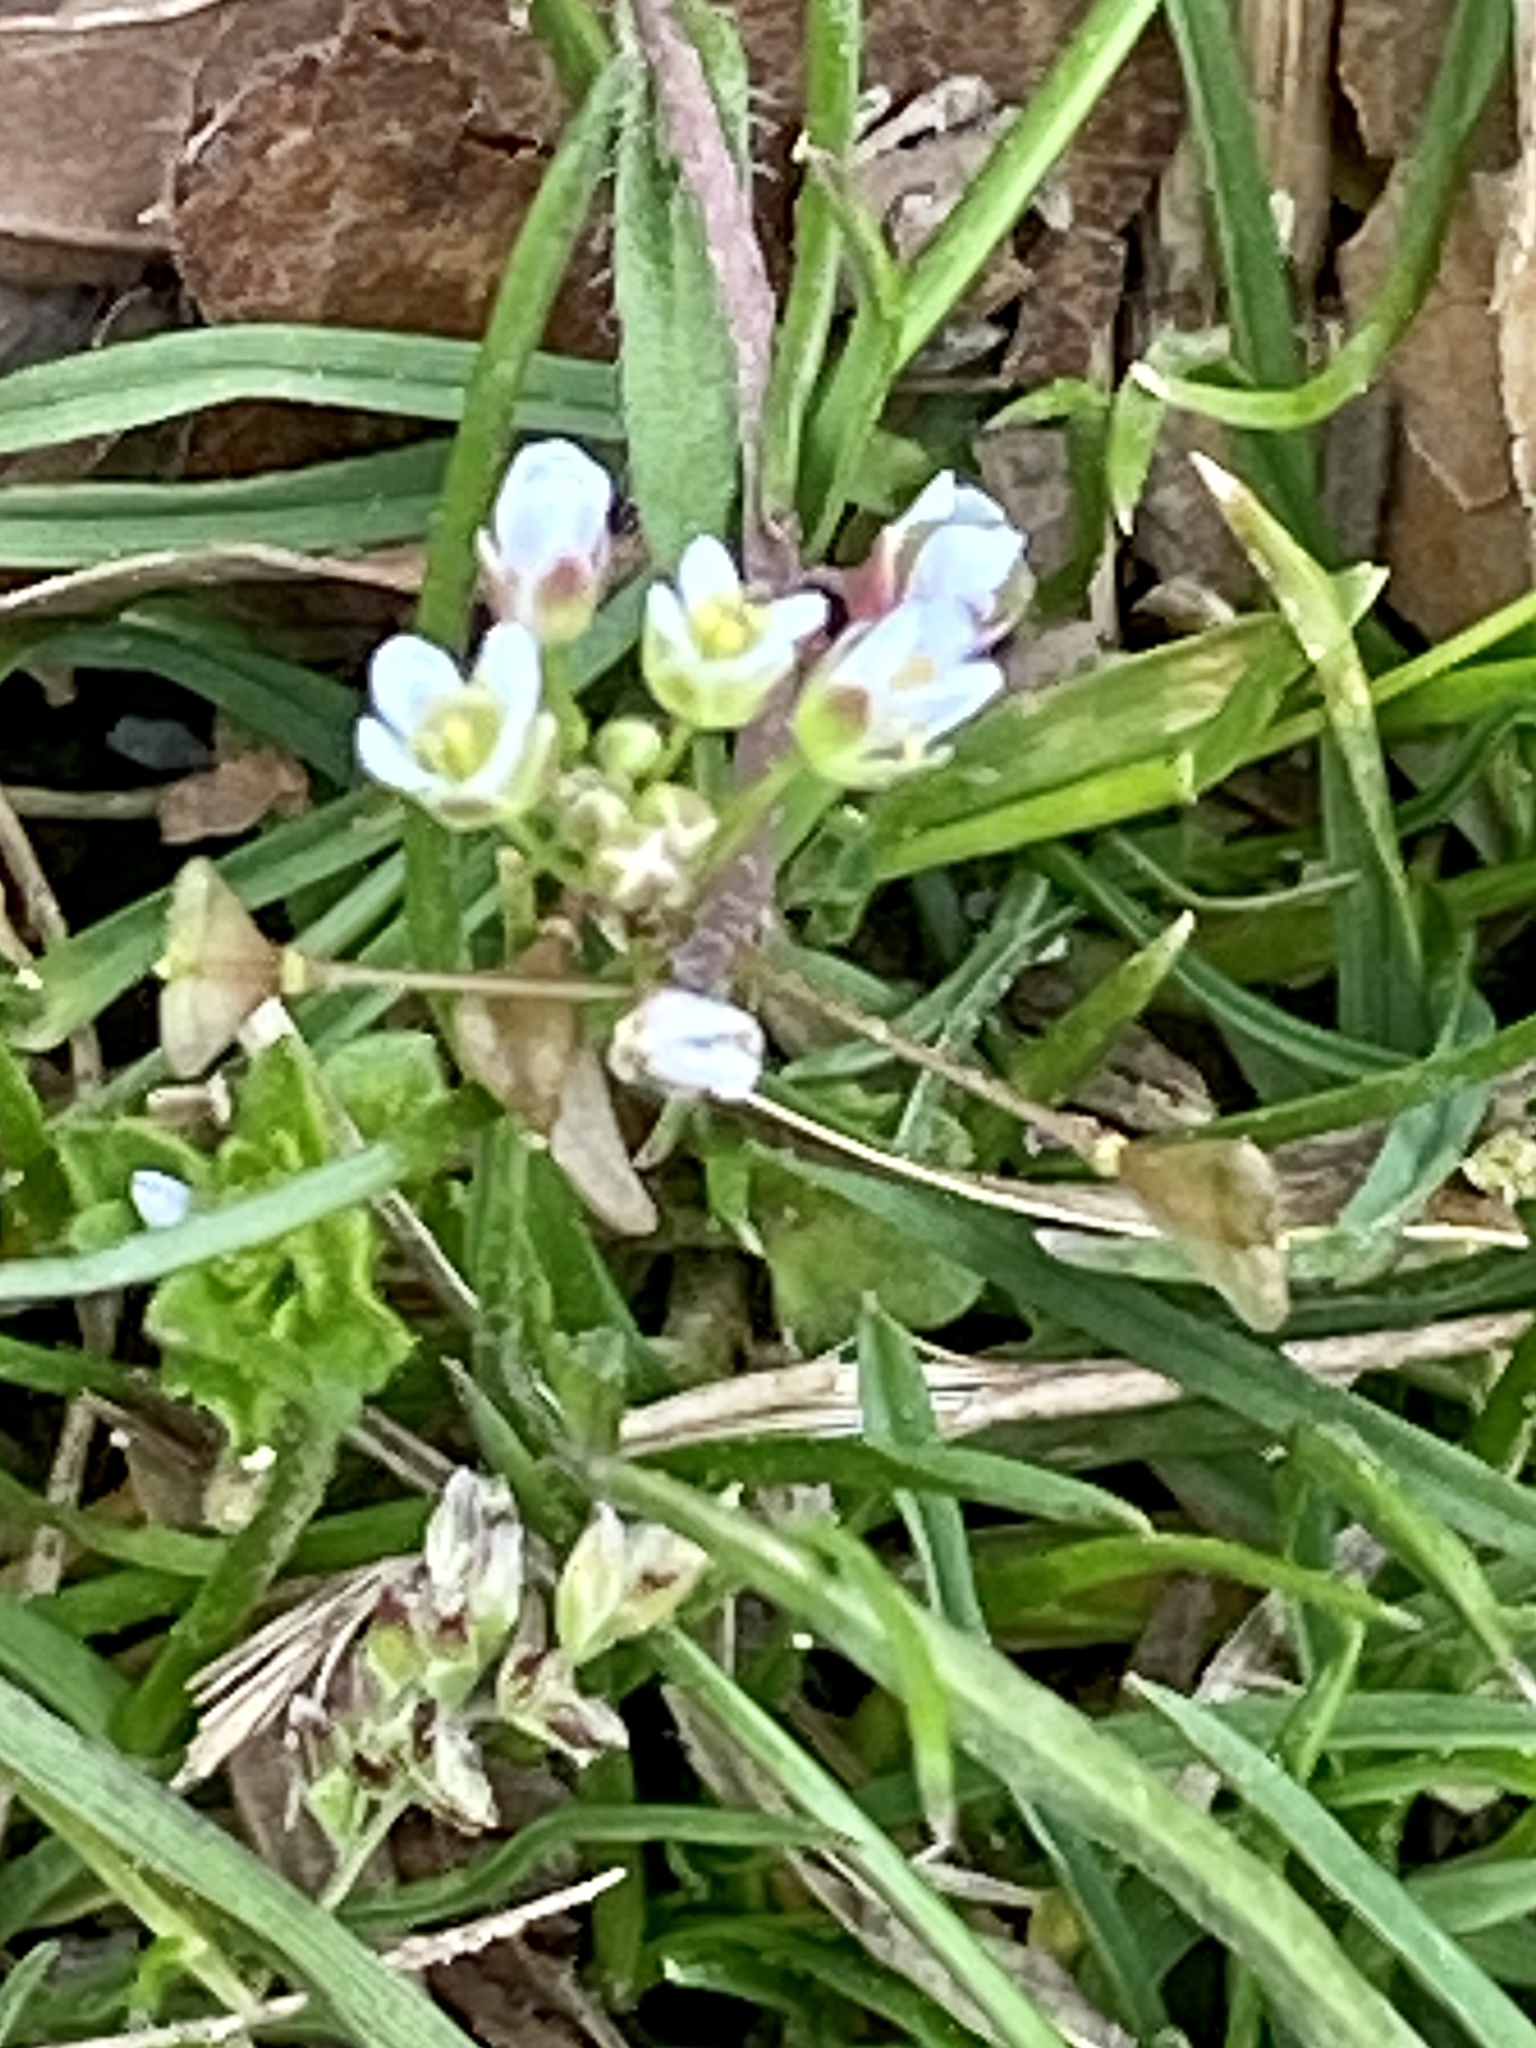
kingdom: Plantae
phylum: Tracheophyta
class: Magnoliopsida
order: Brassicales
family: Brassicaceae
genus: Capsella
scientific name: Capsella bursa-pastoris
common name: Shepherd's purse
